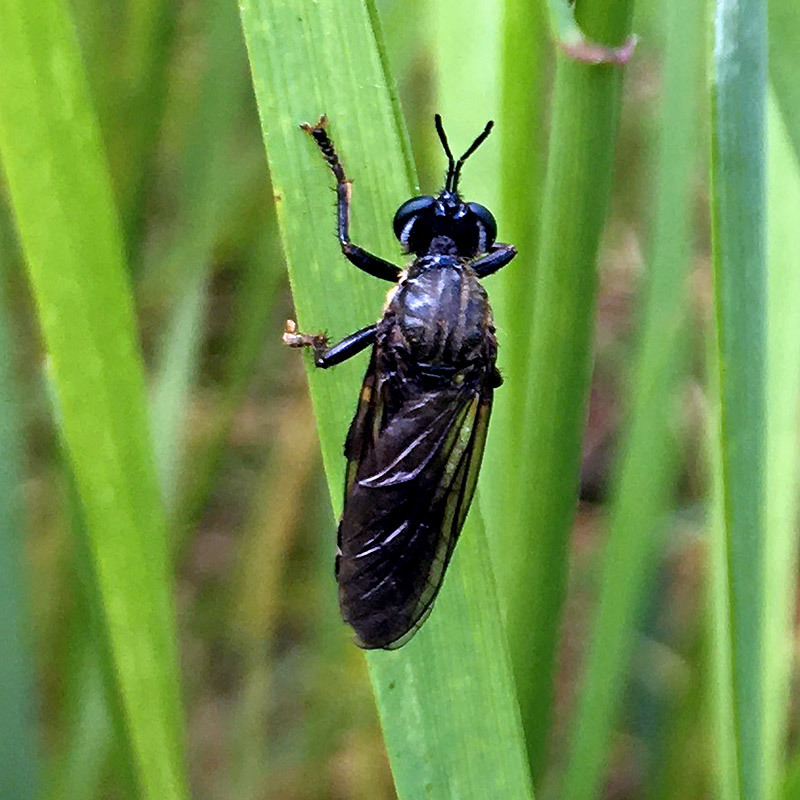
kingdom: Animalia
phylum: Arthropoda
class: Insecta
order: Diptera
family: Asilidae
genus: Dioctria
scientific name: Dioctria atricapilla
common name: Violet black-legged
